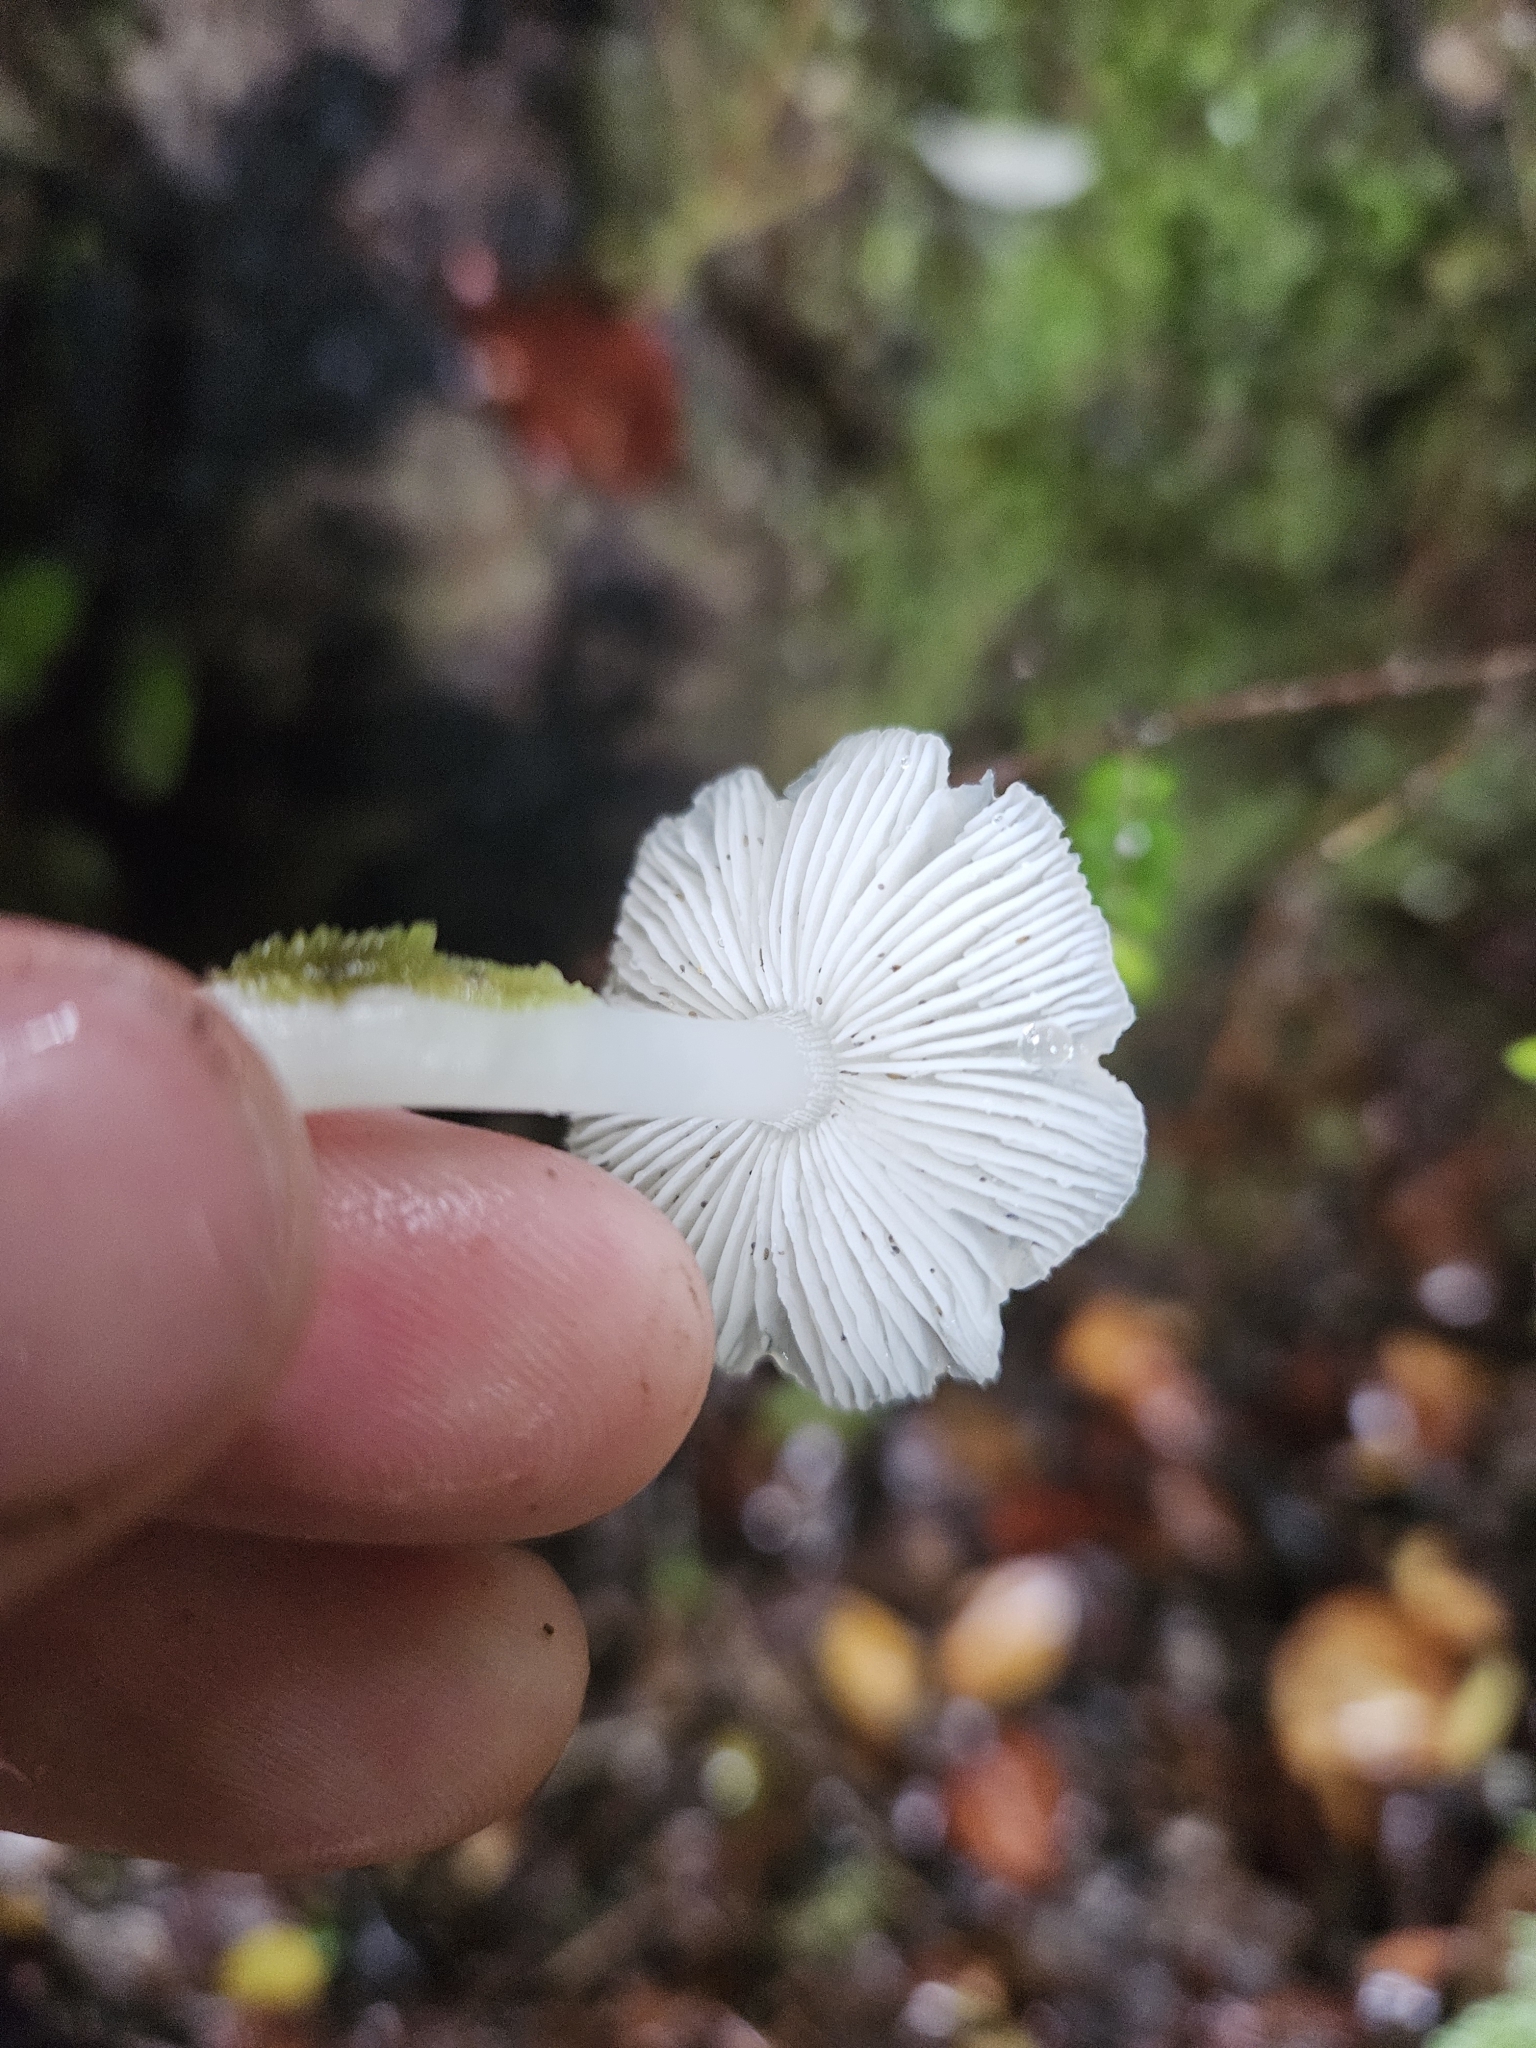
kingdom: Fungi
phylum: Basidiomycota
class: Agaricomycetes
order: Agaricales
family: Hygrophoraceae
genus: Humidicutis
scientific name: Humidicutis mavis
